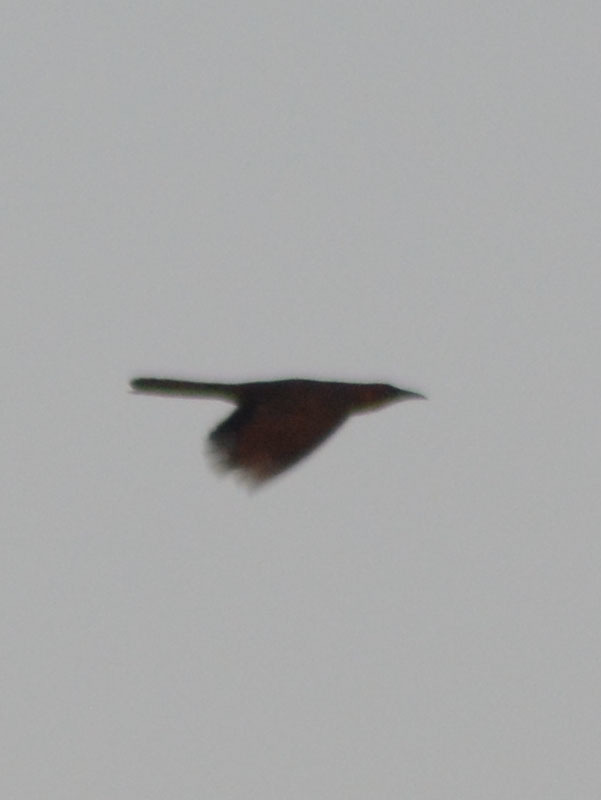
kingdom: Animalia
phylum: Chordata
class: Aves
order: Passeriformes
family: Icteridae
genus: Quiscalus
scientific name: Quiscalus mexicanus
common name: Great-tailed grackle
